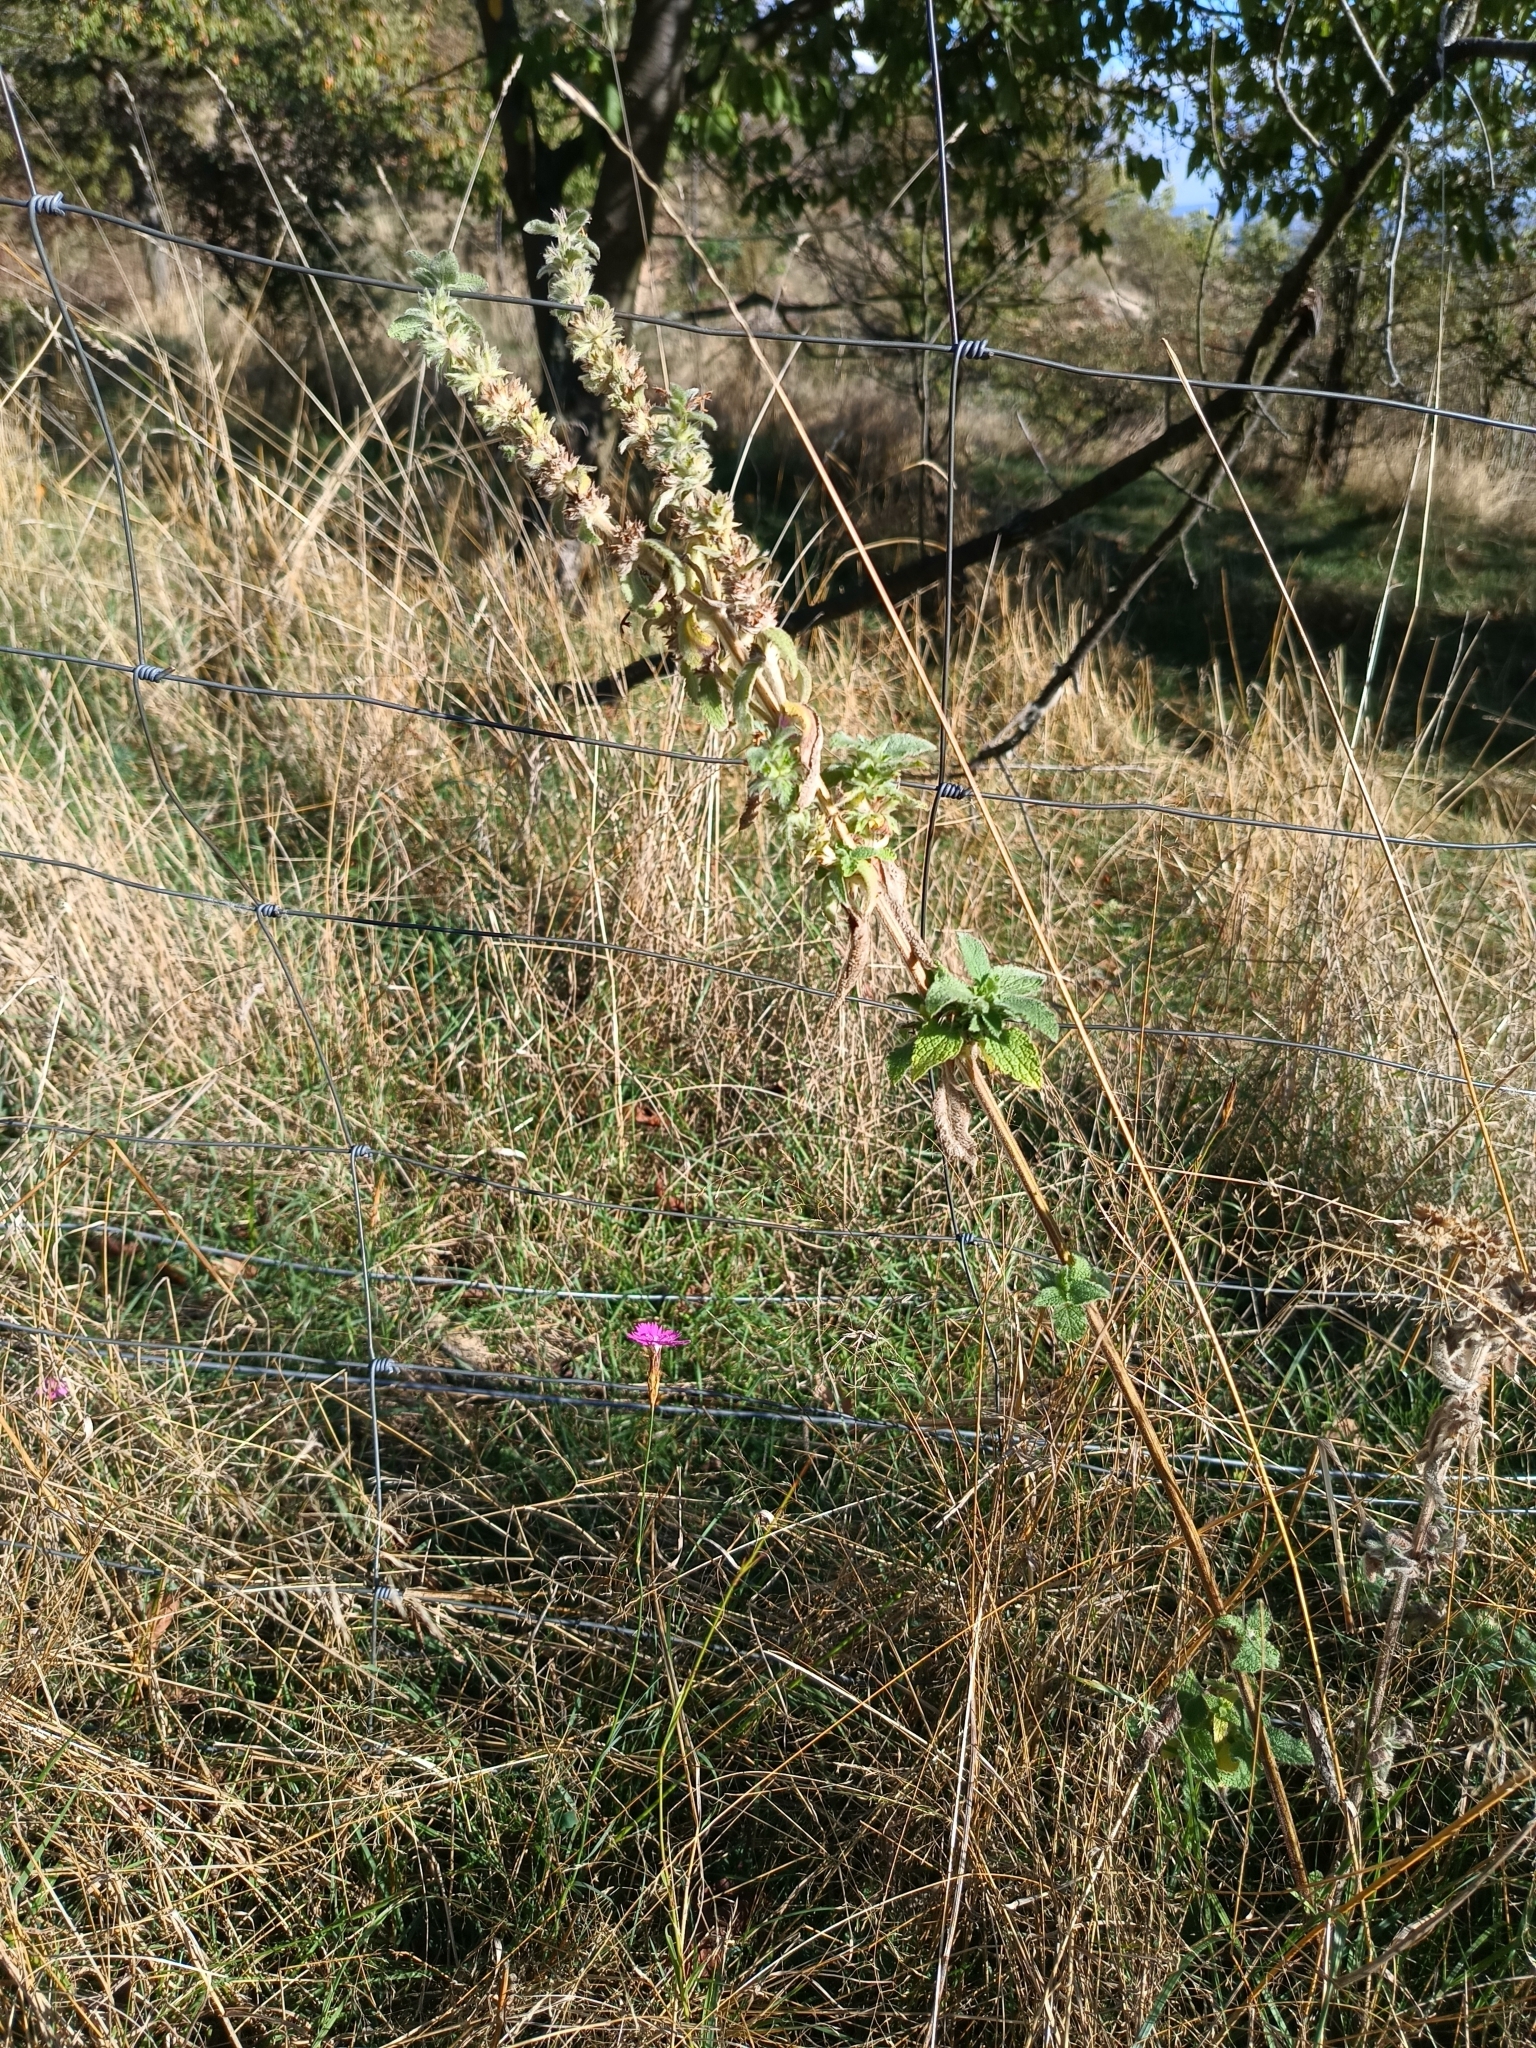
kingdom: Plantae
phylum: Tracheophyta
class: Magnoliopsida
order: Lamiales
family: Lamiaceae
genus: Stachys
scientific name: Stachys germanica
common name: Downy woundwort
